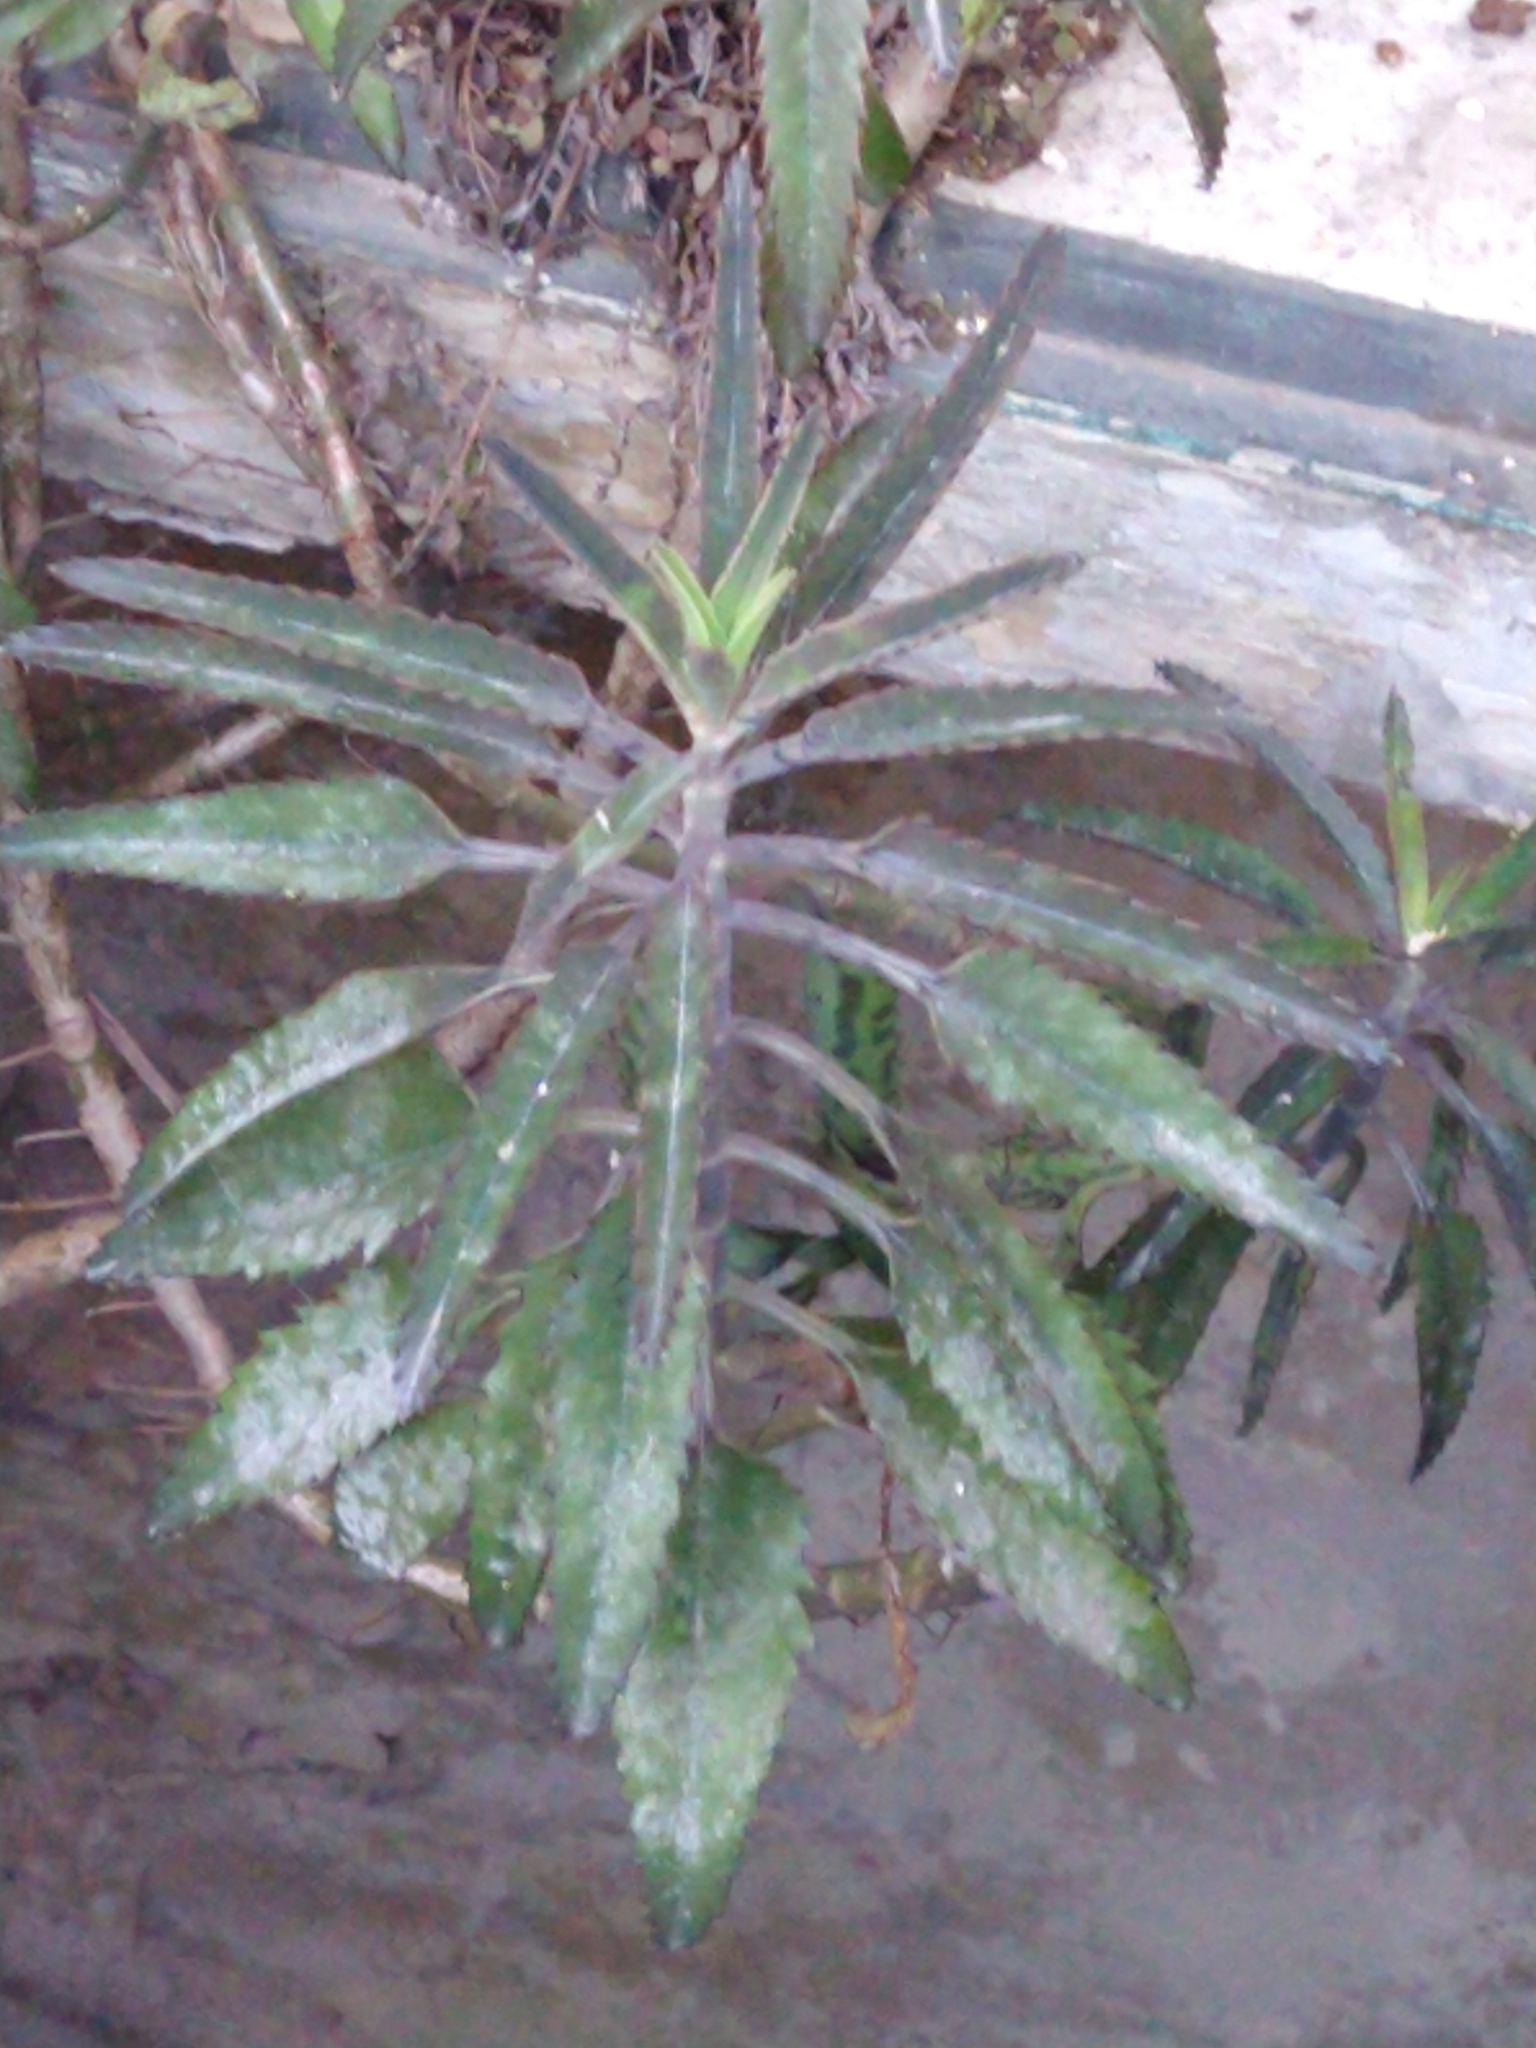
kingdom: Plantae
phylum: Tracheophyta
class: Magnoliopsida
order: Saxifragales
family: Crassulaceae
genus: Kalanchoe
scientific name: Kalanchoe houghtonii
